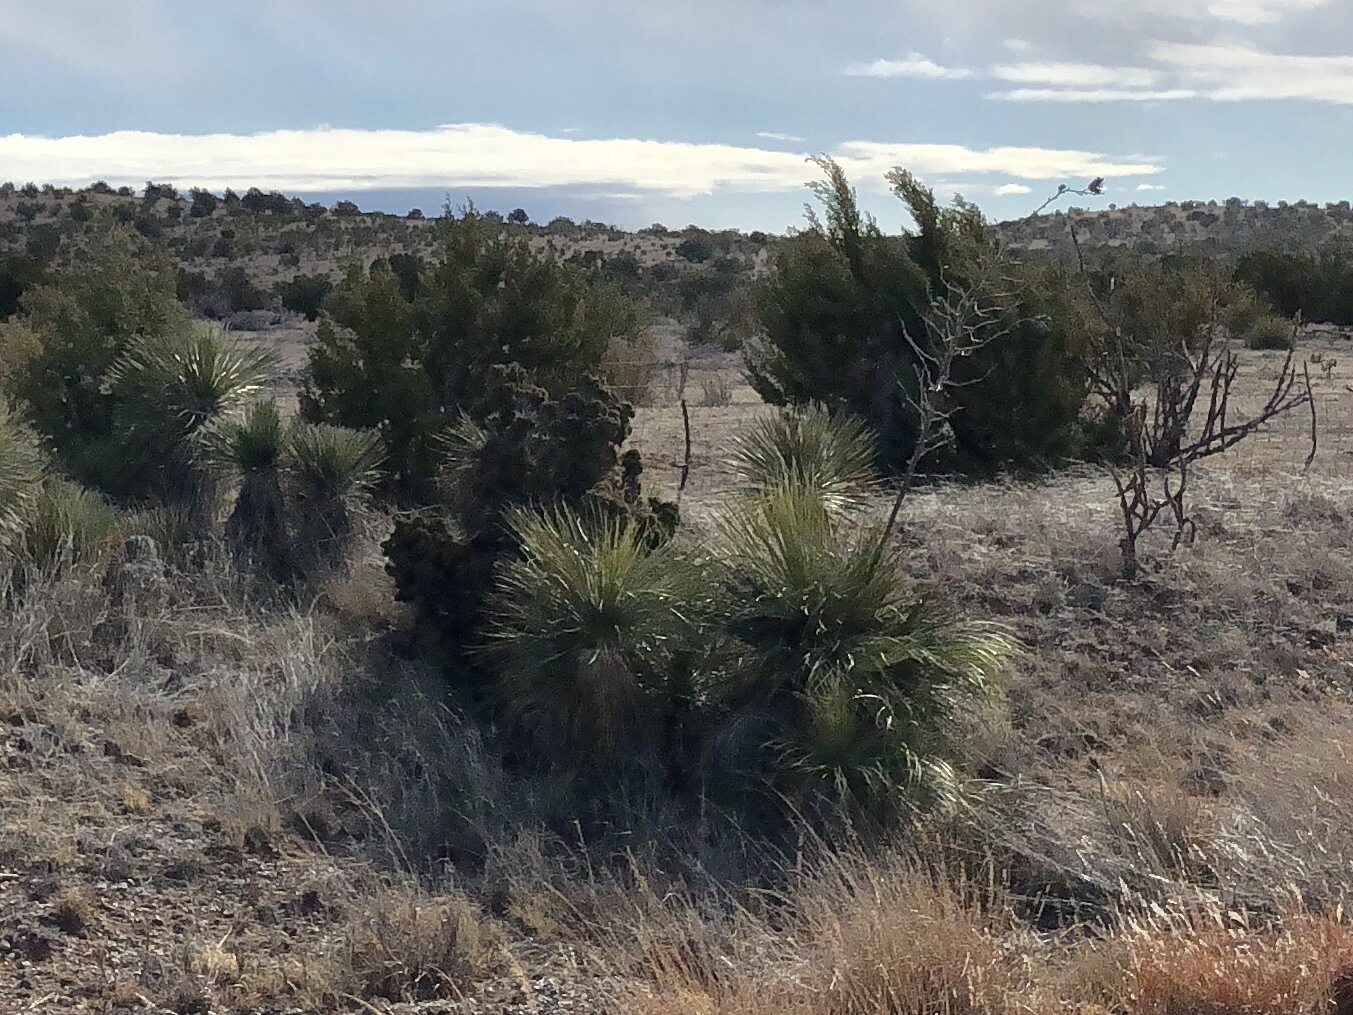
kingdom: Plantae
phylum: Tracheophyta
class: Liliopsida
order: Asparagales
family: Asparagaceae
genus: Yucca
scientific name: Yucca elata
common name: Palmella
